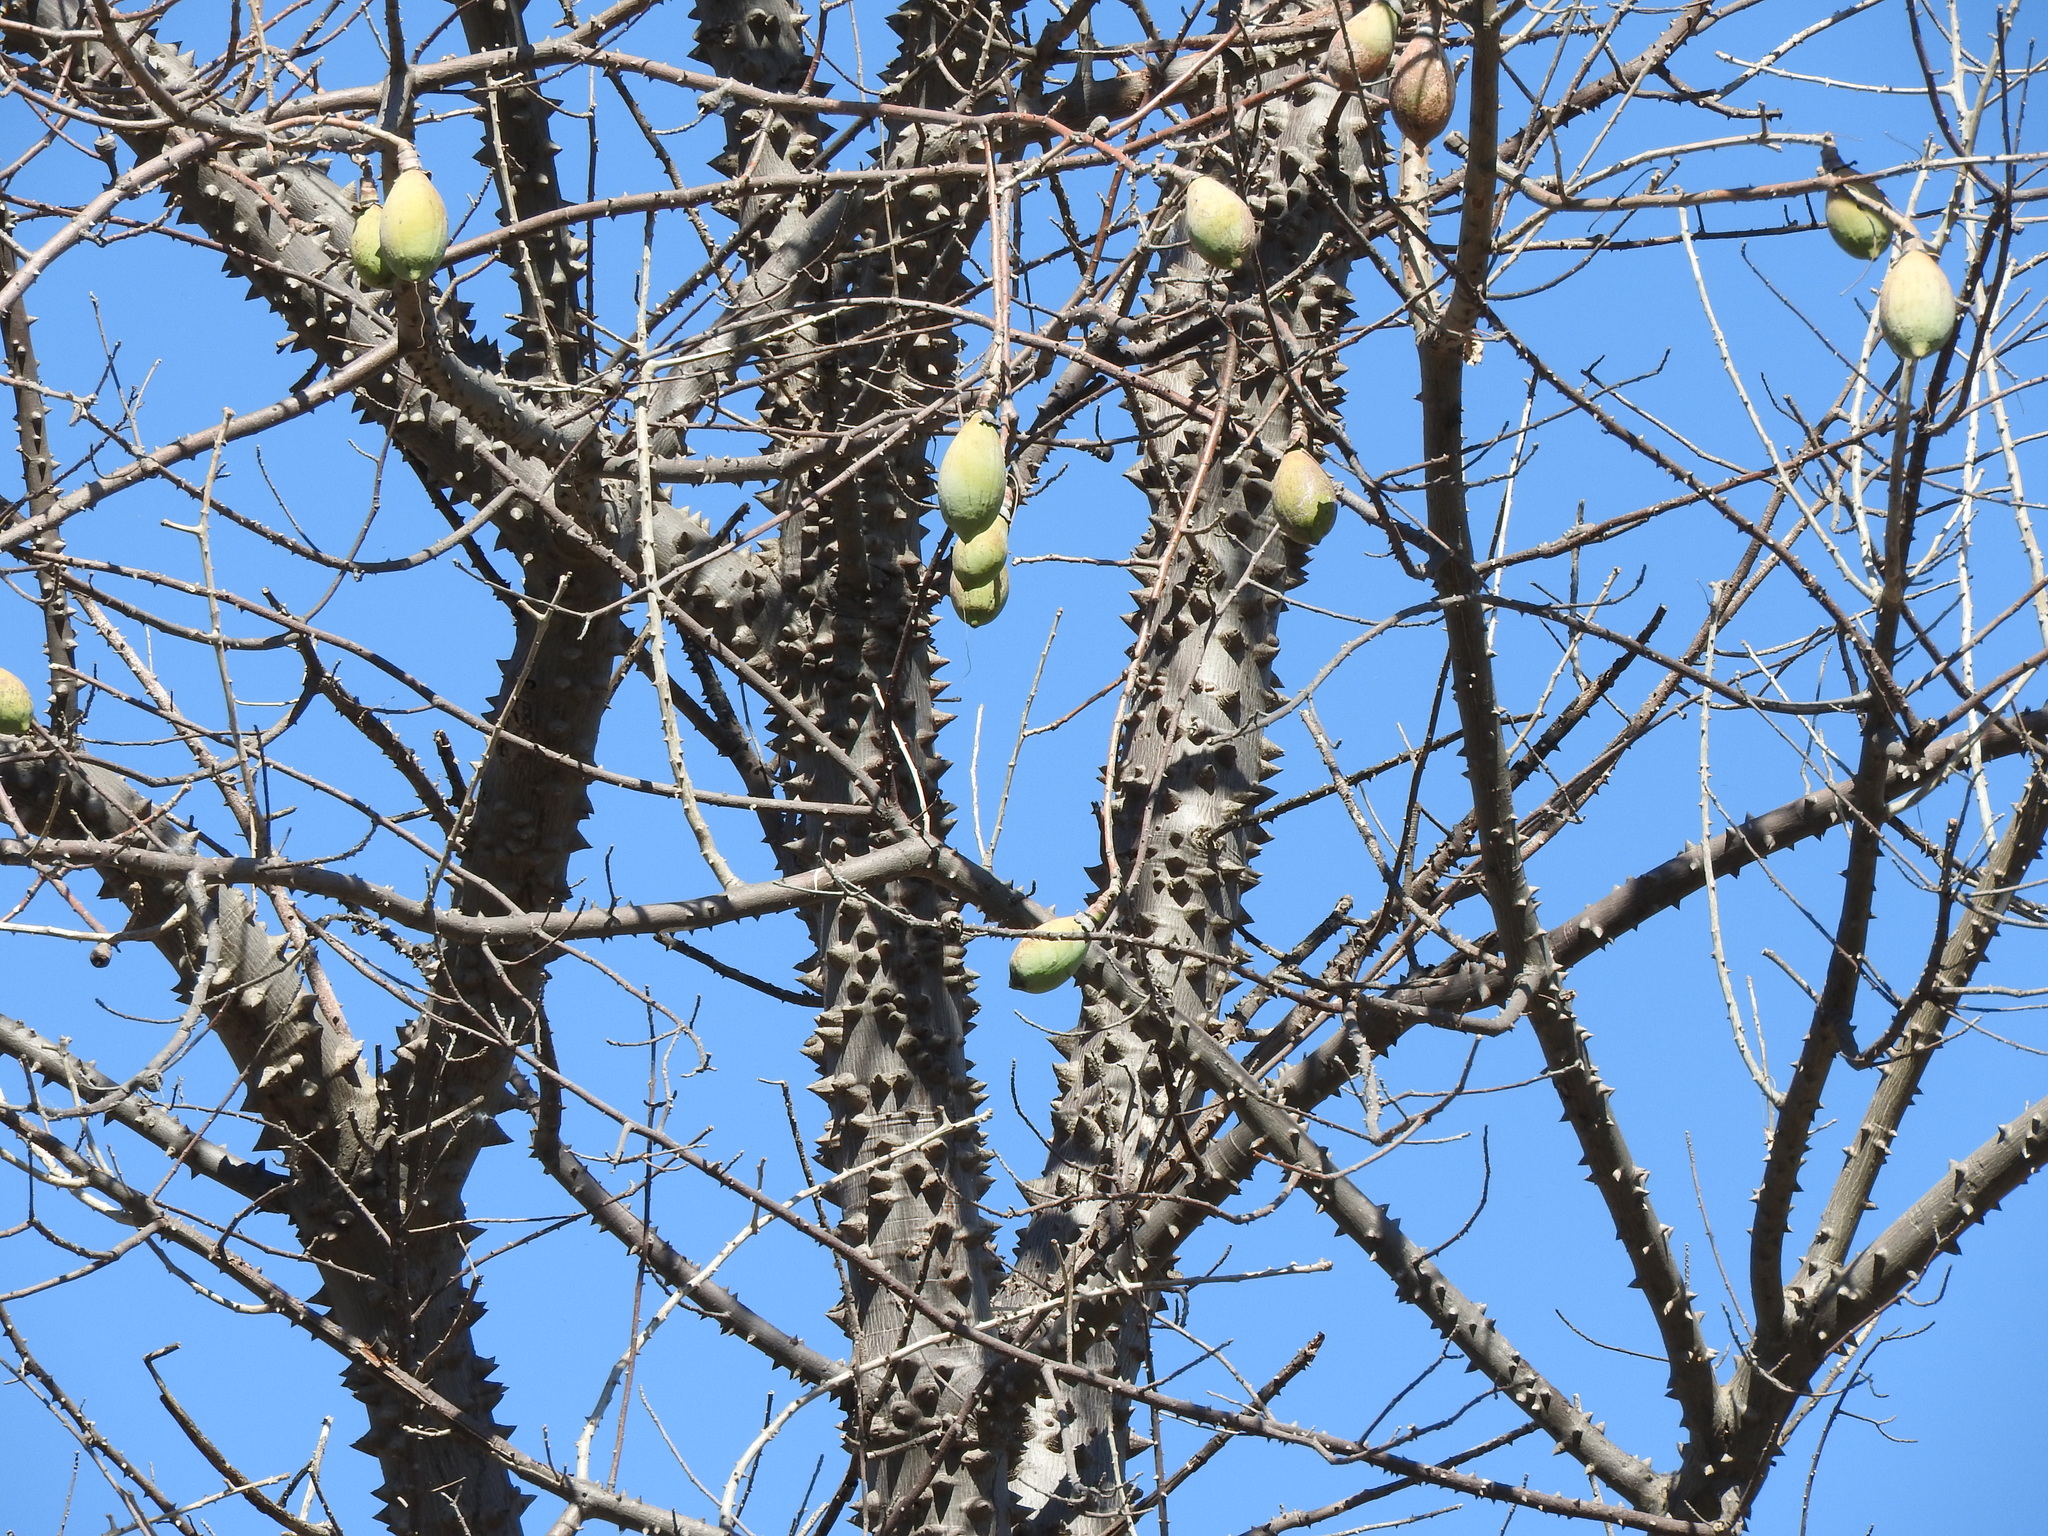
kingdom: Plantae
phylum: Tracheophyta
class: Magnoliopsida
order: Malvales
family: Malvaceae
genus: Ceiba
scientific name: Ceiba aesculifolia
